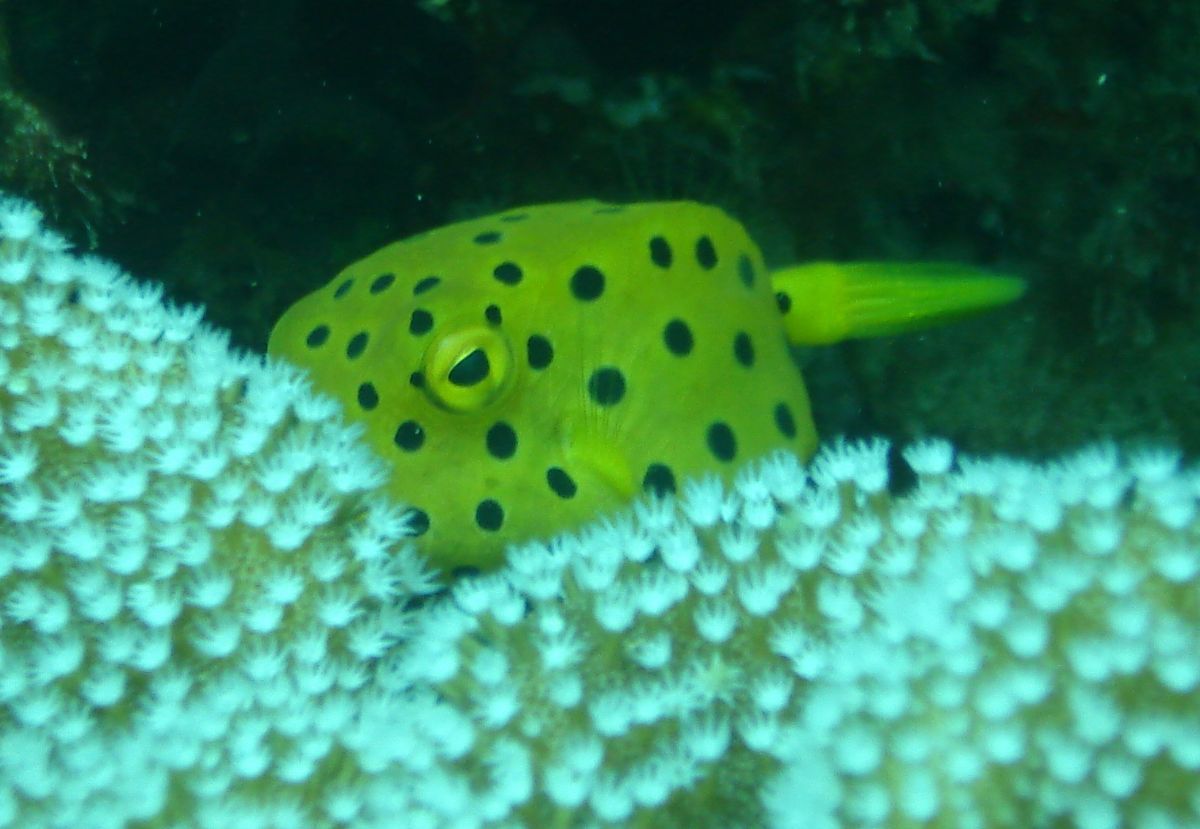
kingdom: Animalia
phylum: Chordata
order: Tetraodontiformes
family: Ostraciidae
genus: Ostracion
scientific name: Ostracion cubicus
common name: Cube trunkfish
